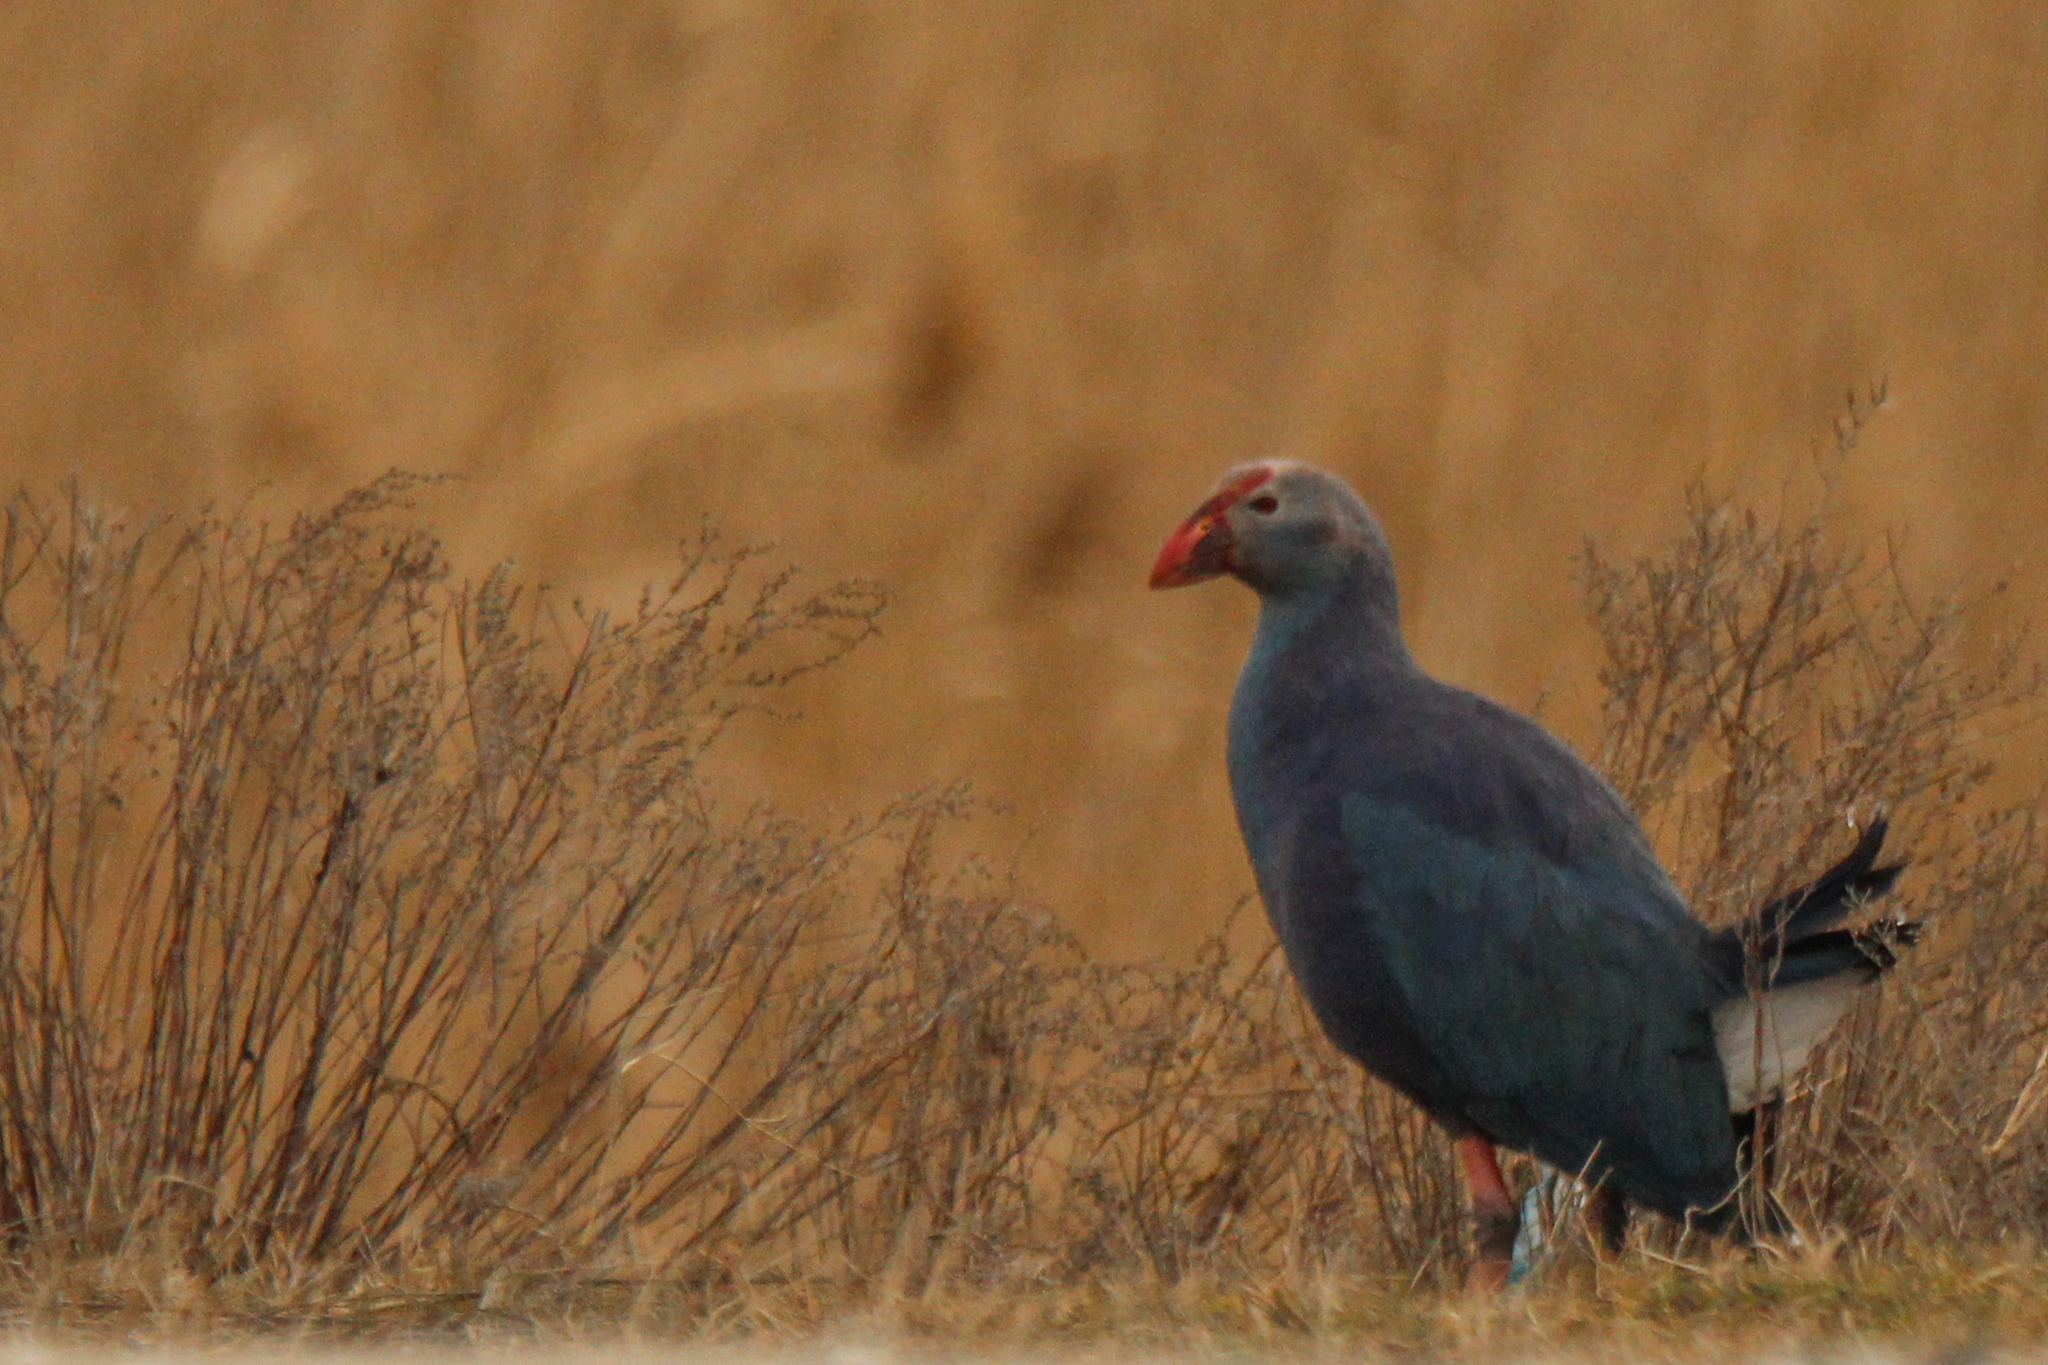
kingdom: Animalia
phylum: Chordata
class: Aves
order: Gruiformes
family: Rallidae
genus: Porphyrio
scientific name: Porphyrio porphyrio
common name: Purple swamphen
